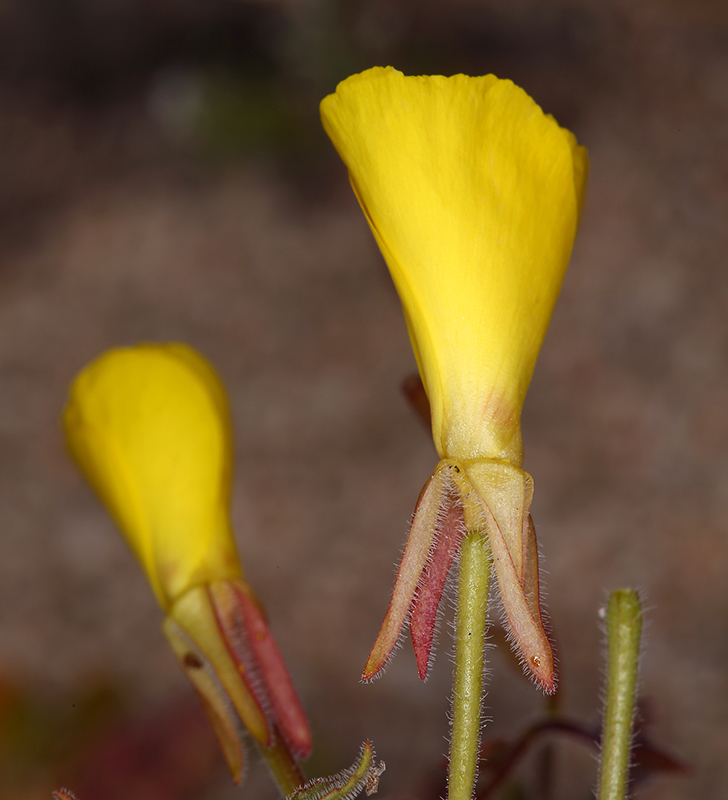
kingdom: Plantae
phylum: Tracheophyta
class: Magnoliopsida
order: Myrtales
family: Onagraceae
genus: Camissonia
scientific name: Camissonia kernensis
